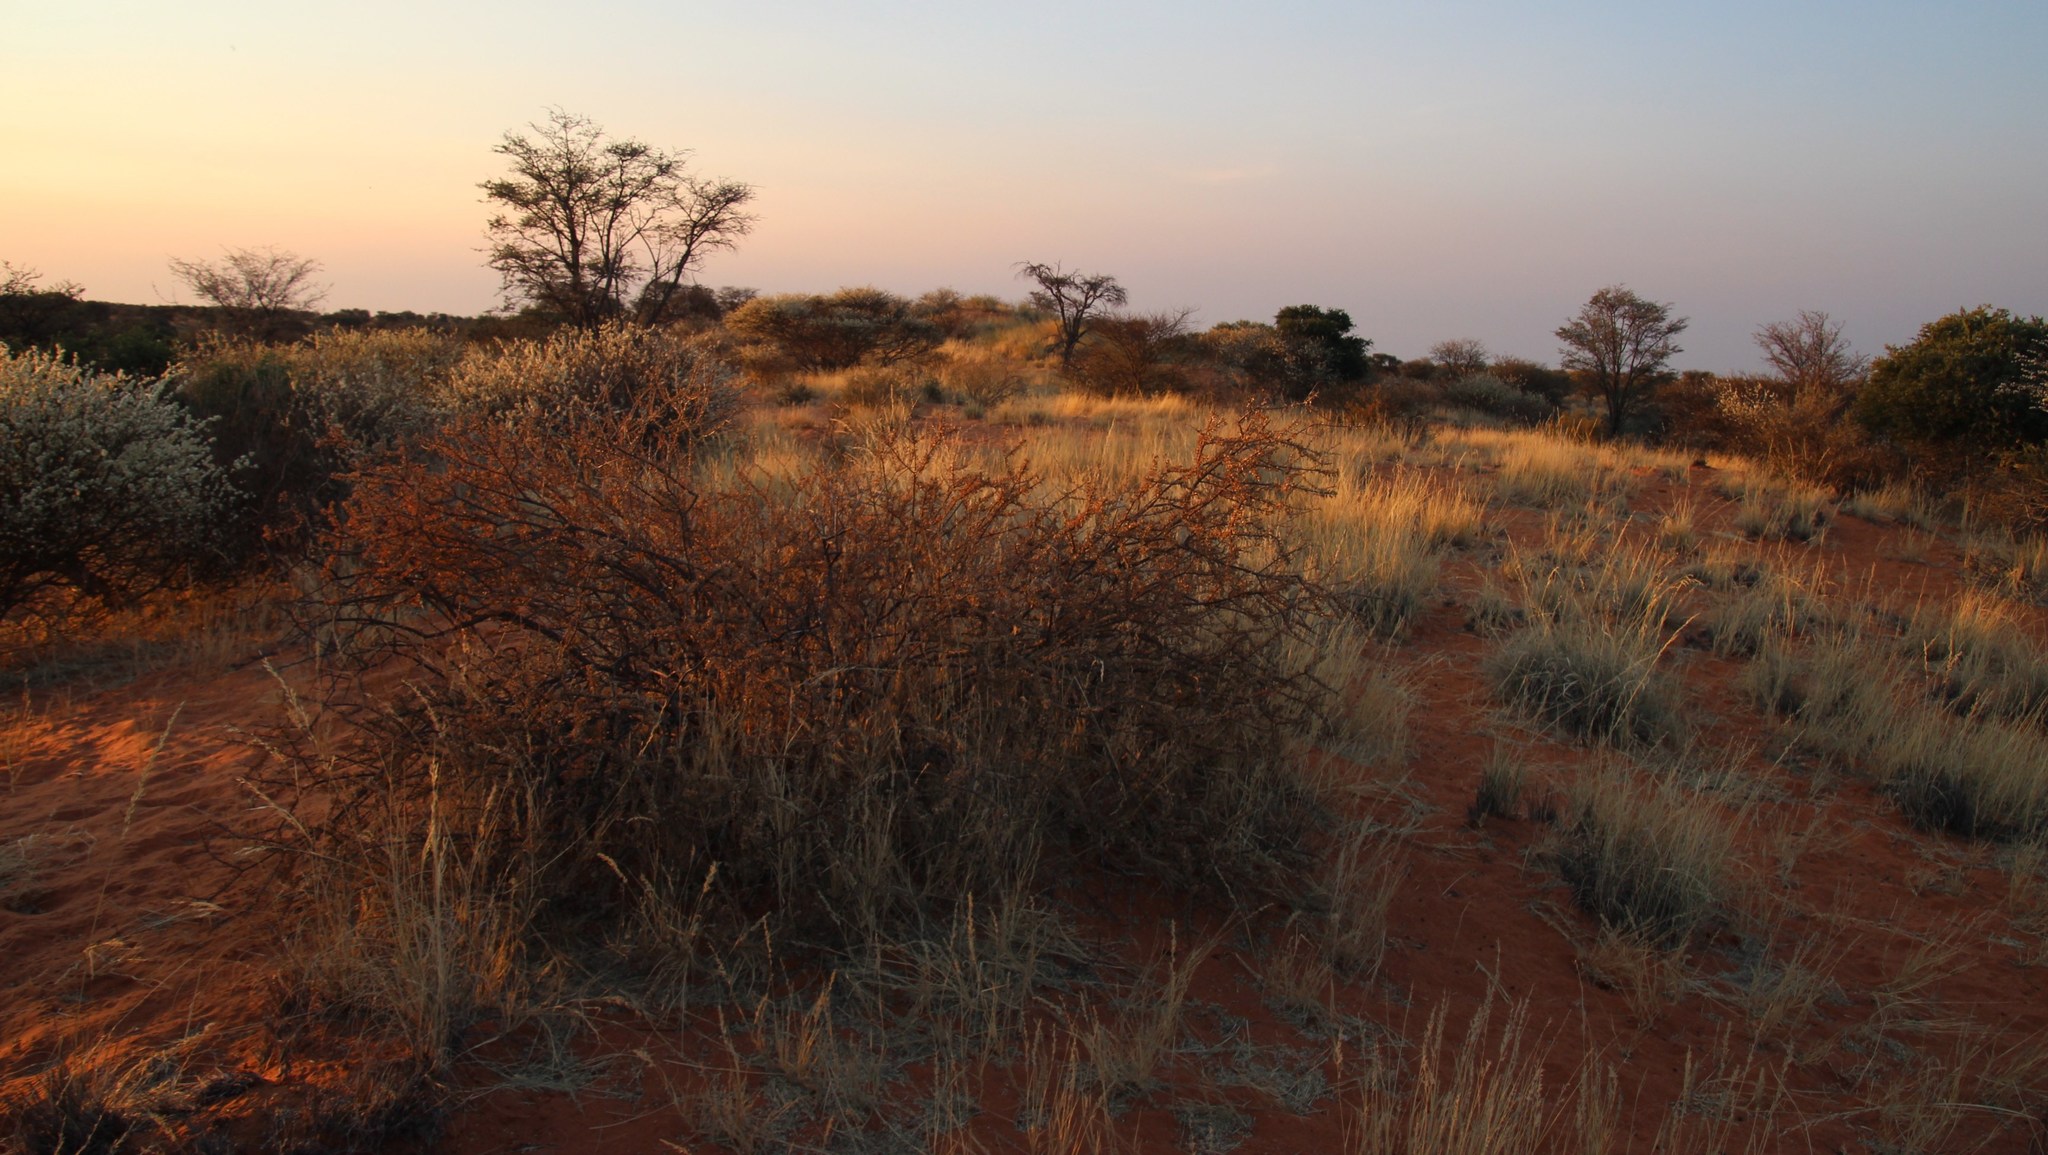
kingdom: Plantae
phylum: Tracheophyta
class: Magnoliopsida
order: Lamiales
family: Bignoniaceae
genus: Rhigozum
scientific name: Rhigozum trichotomum
